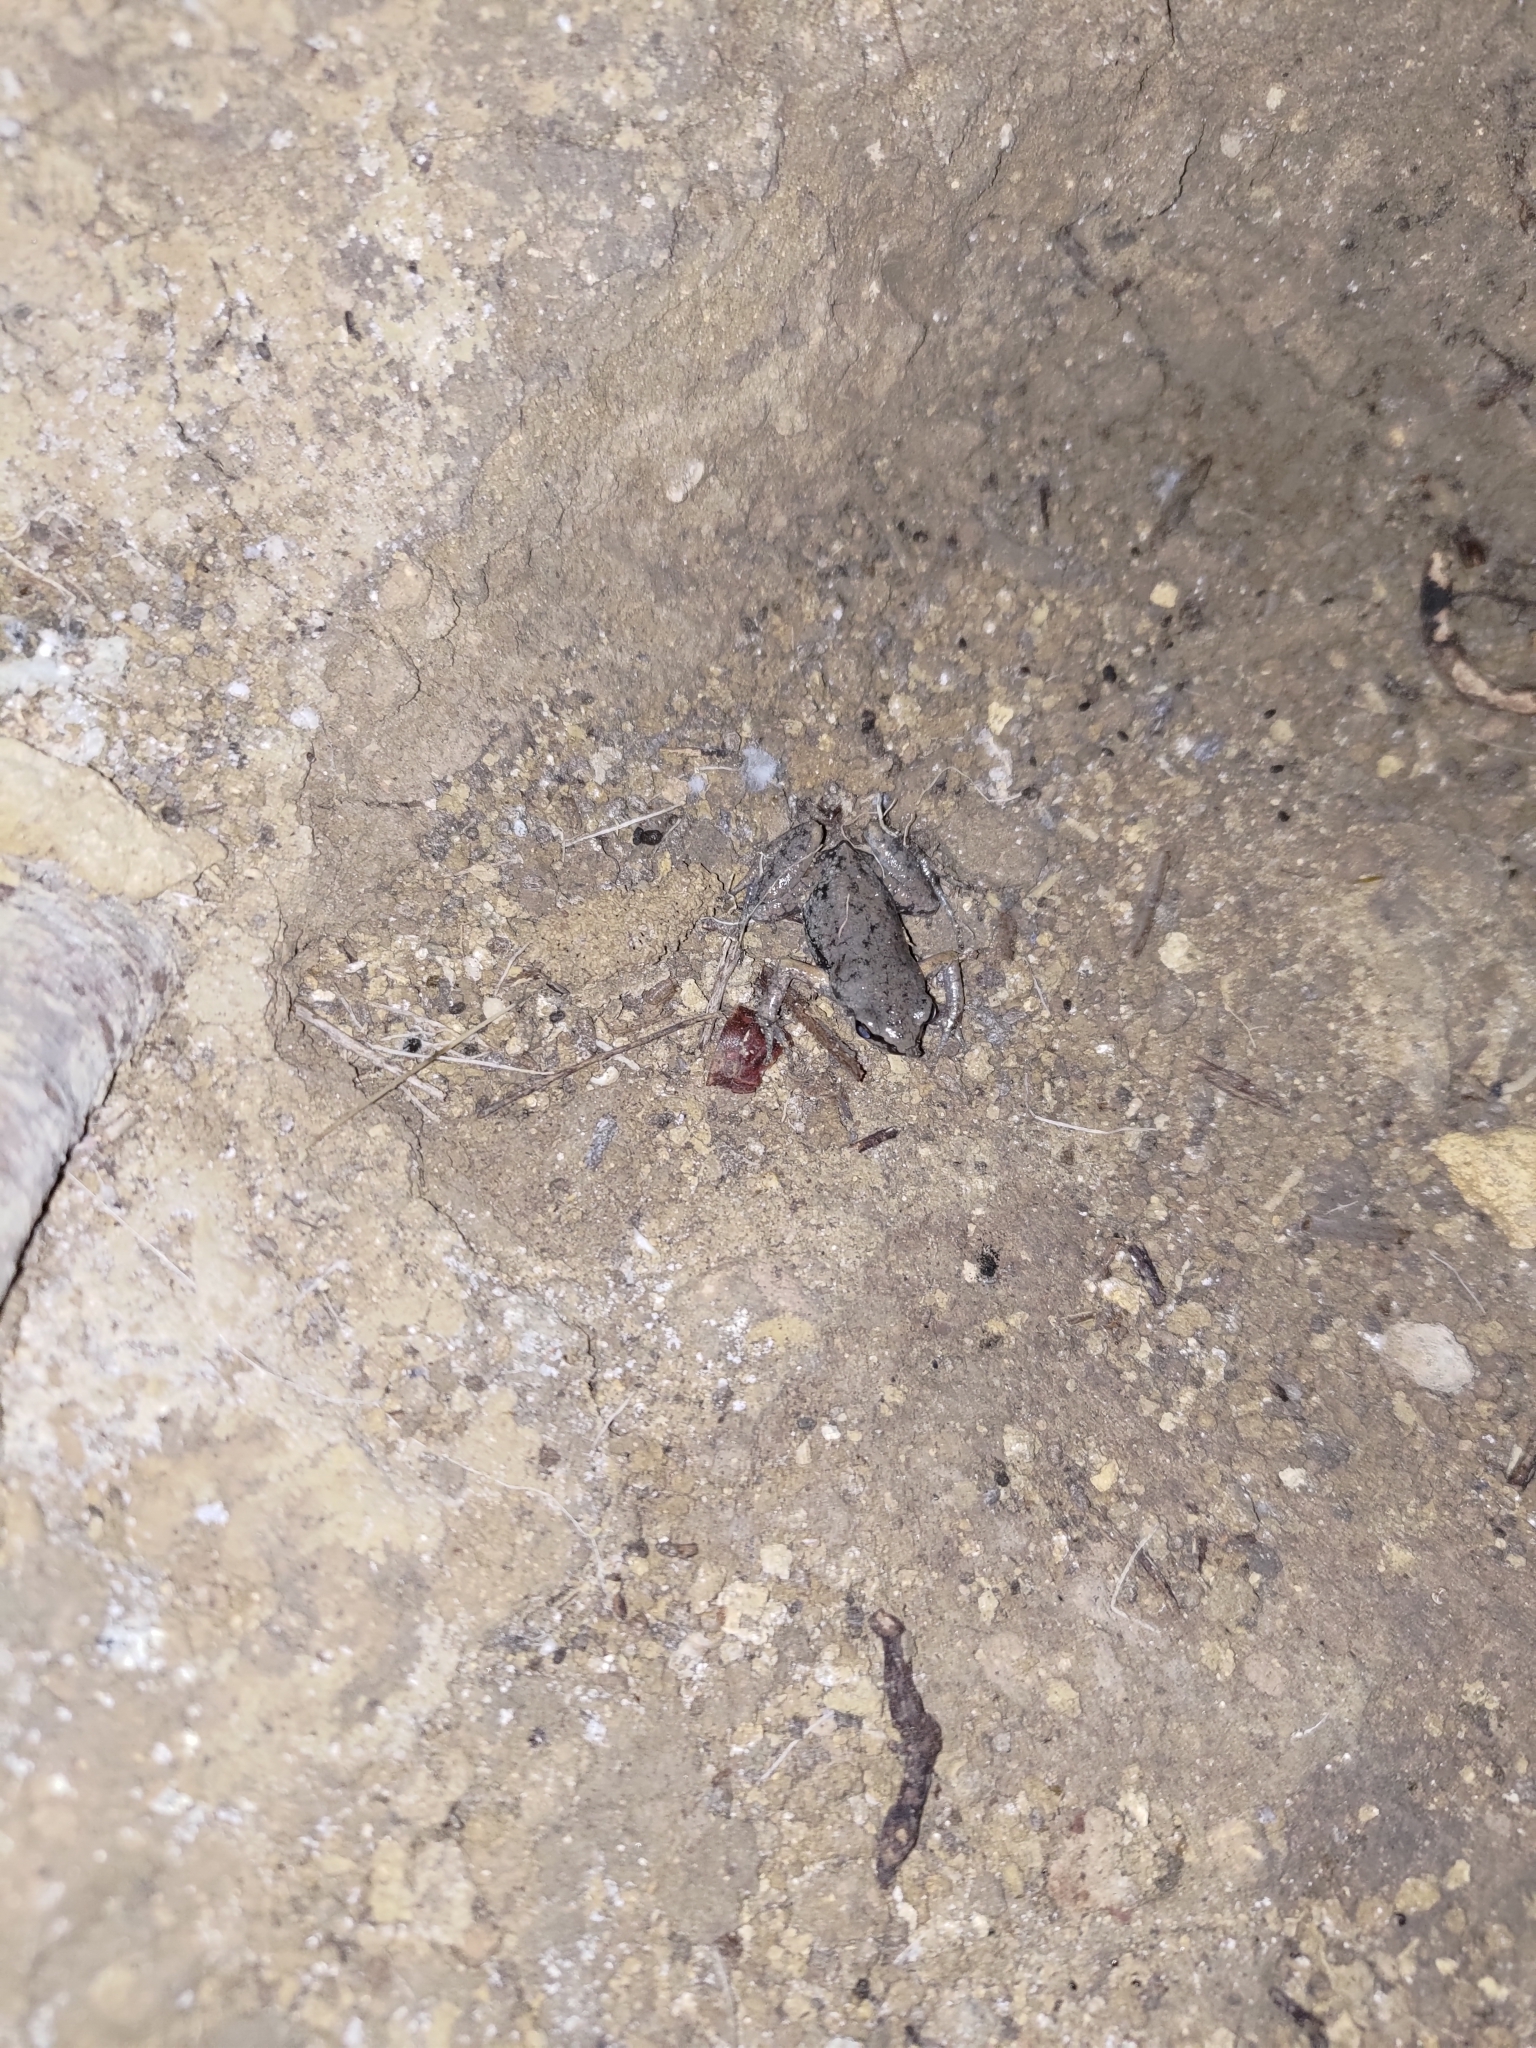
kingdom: Animalia
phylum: Chordata
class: Amphibia
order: Anura
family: Microhylidae
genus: Micryletta
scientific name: Micryletta steinegeri
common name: Stejneger's paddy frog
